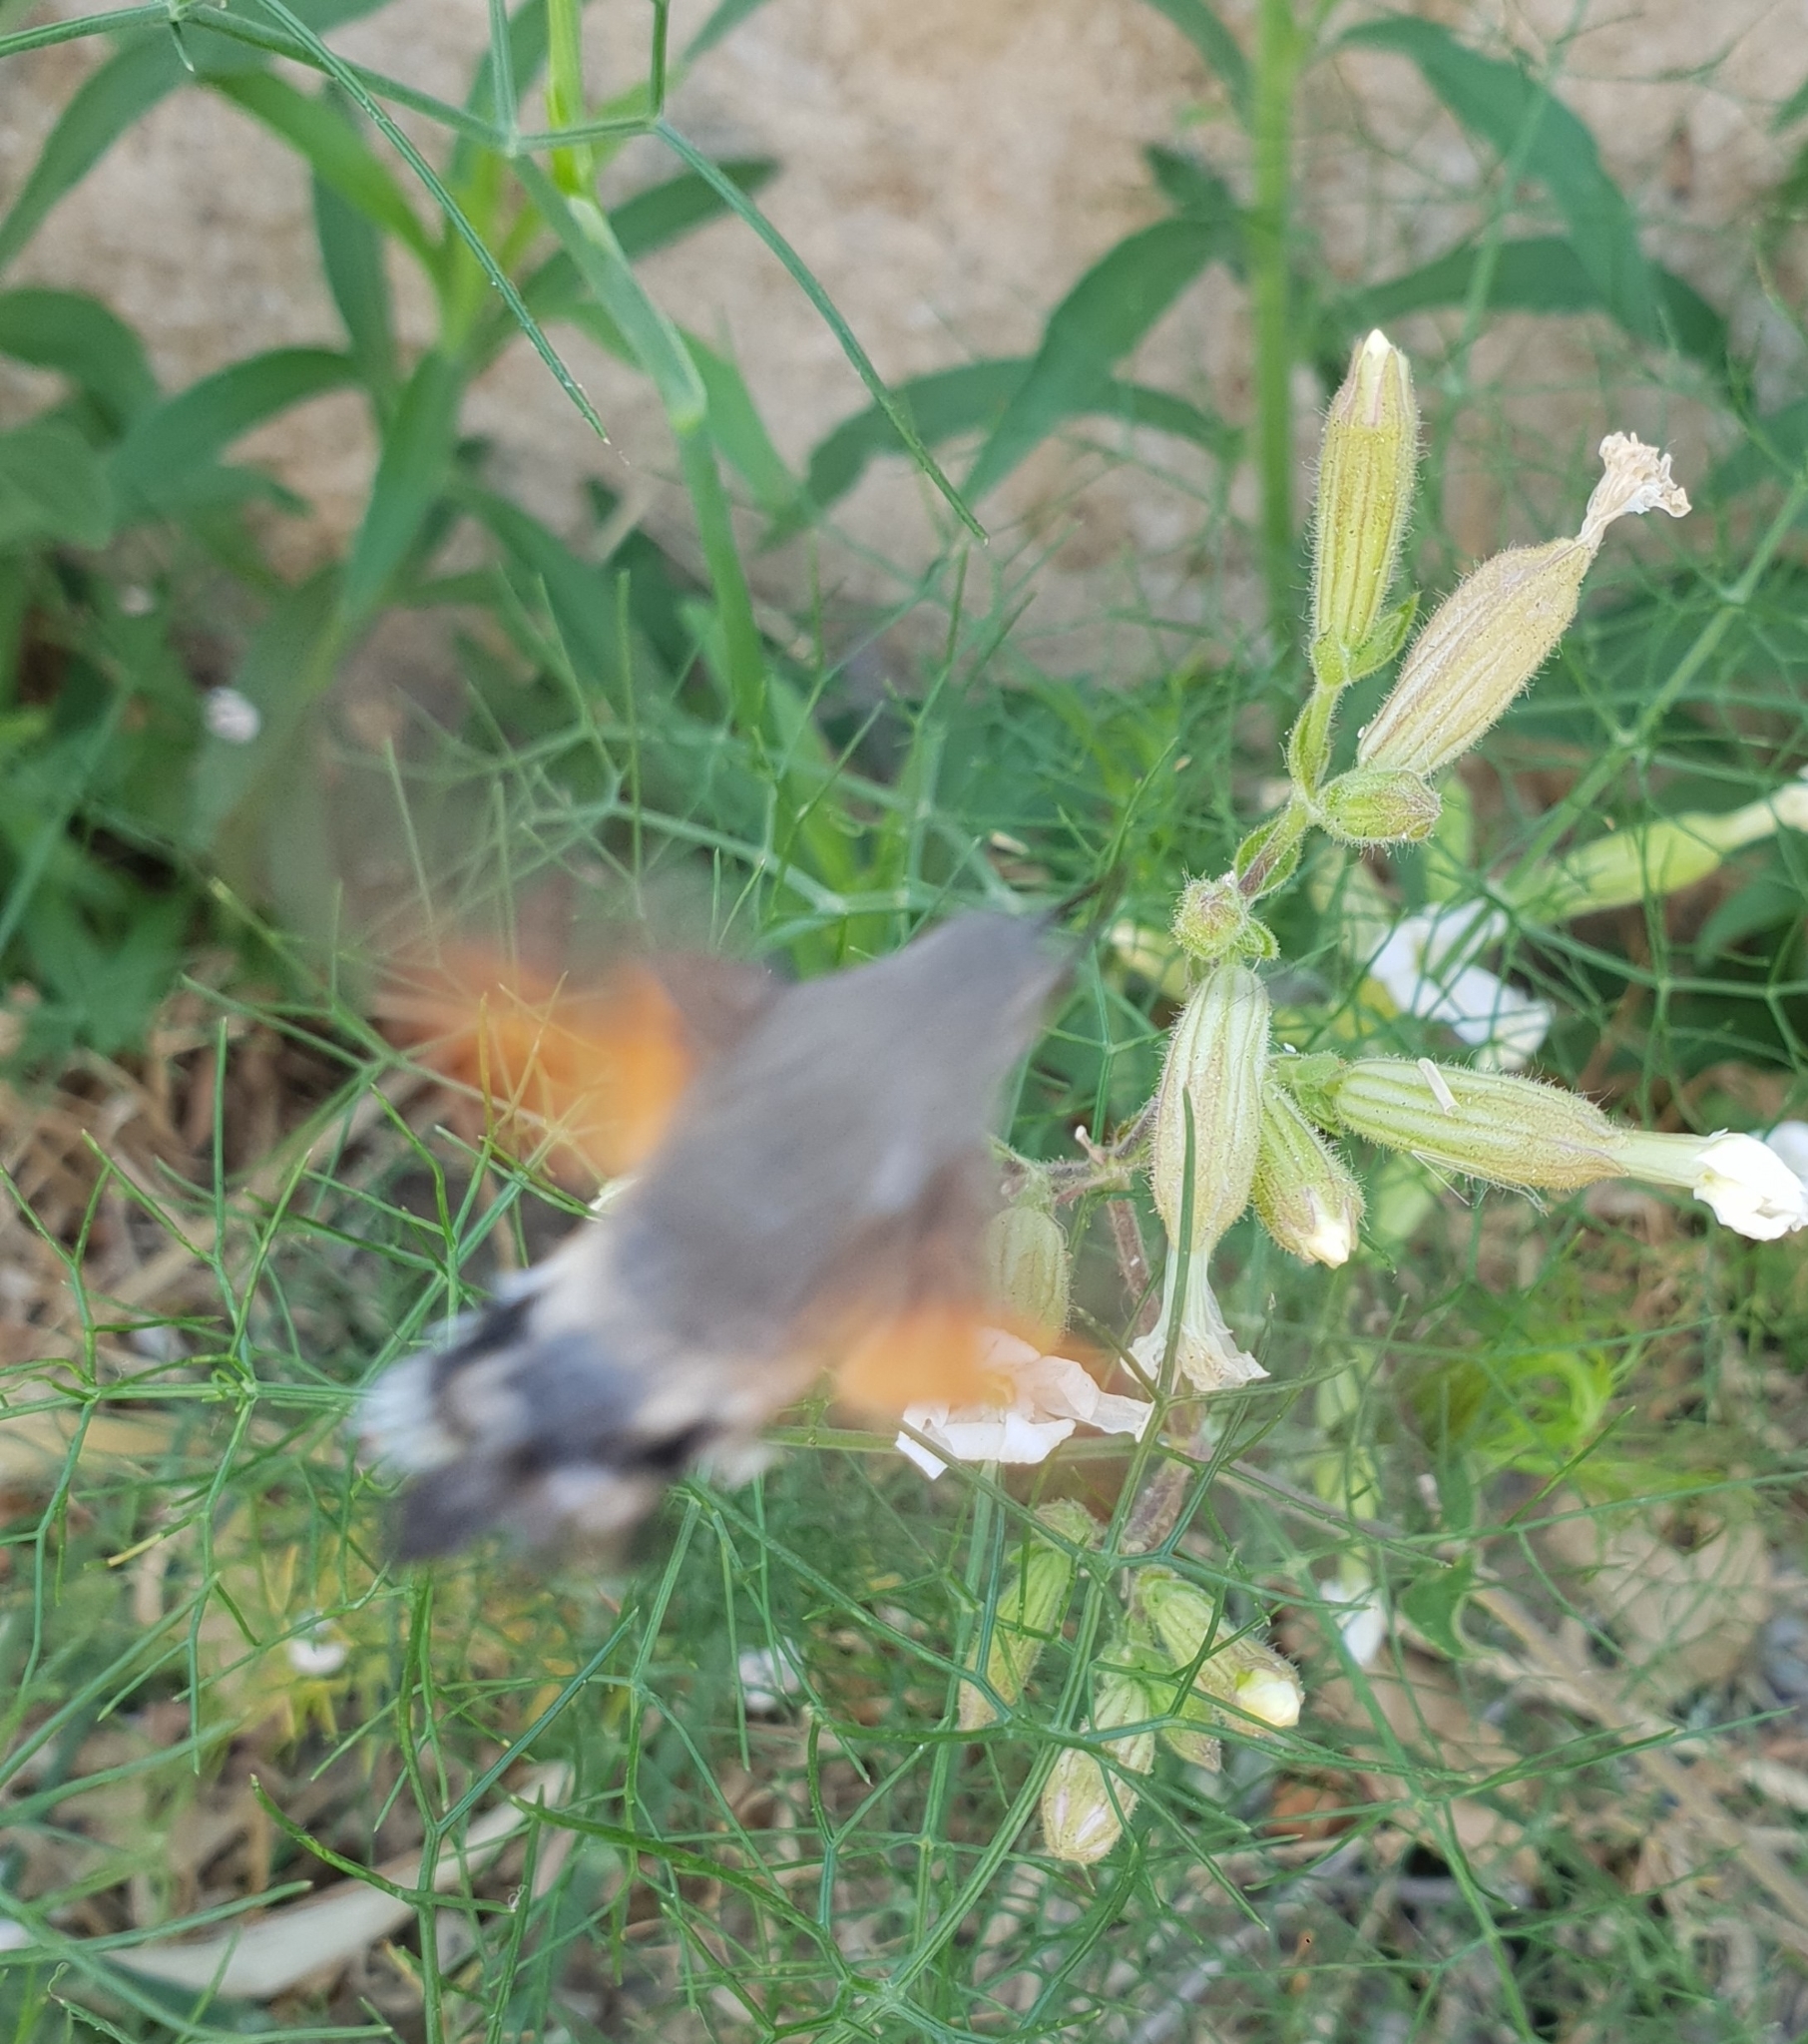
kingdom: Animalia
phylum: Arthropoda
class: Insecta
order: Lepidoptera
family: Sphingidae
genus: Macroglossum
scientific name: Macroglossum stellatarum
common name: Humming-bird hawk-moth
